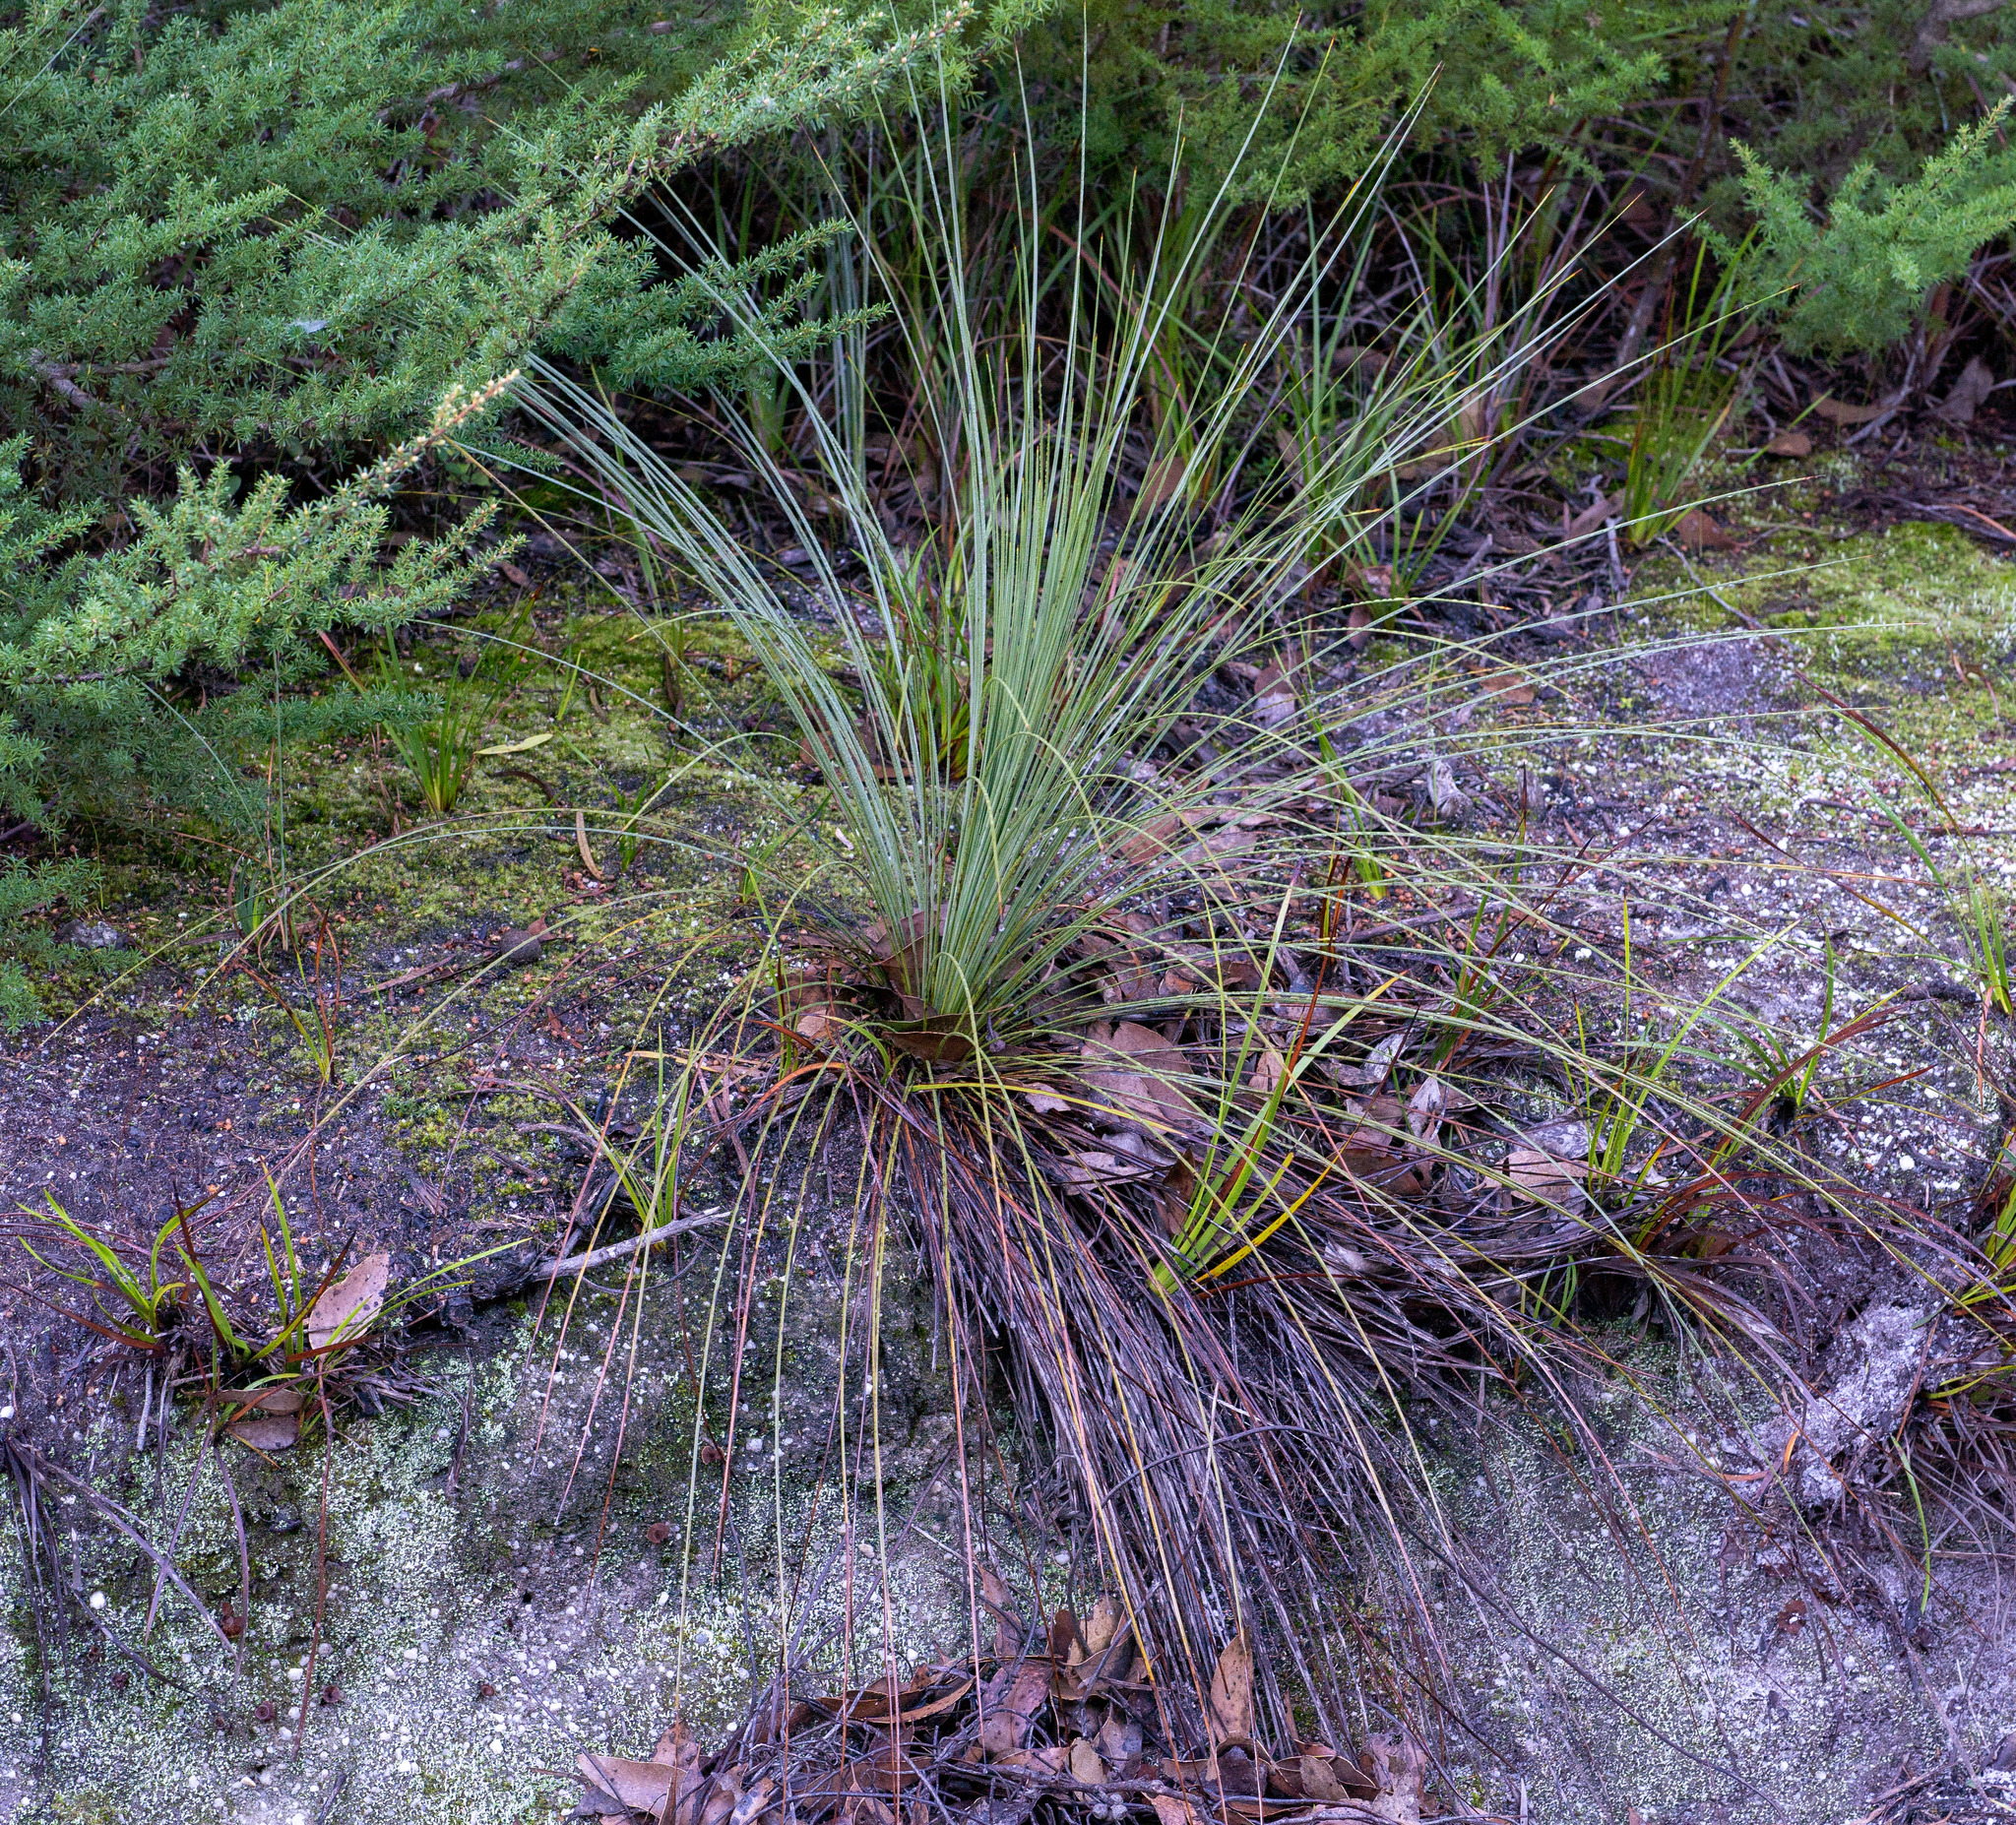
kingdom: Plantae
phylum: Tracheophyta
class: Liliopsida
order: Asparagales
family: Asphodelaceae
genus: Xanthorrhoea
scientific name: Xanthorrhoea australis
